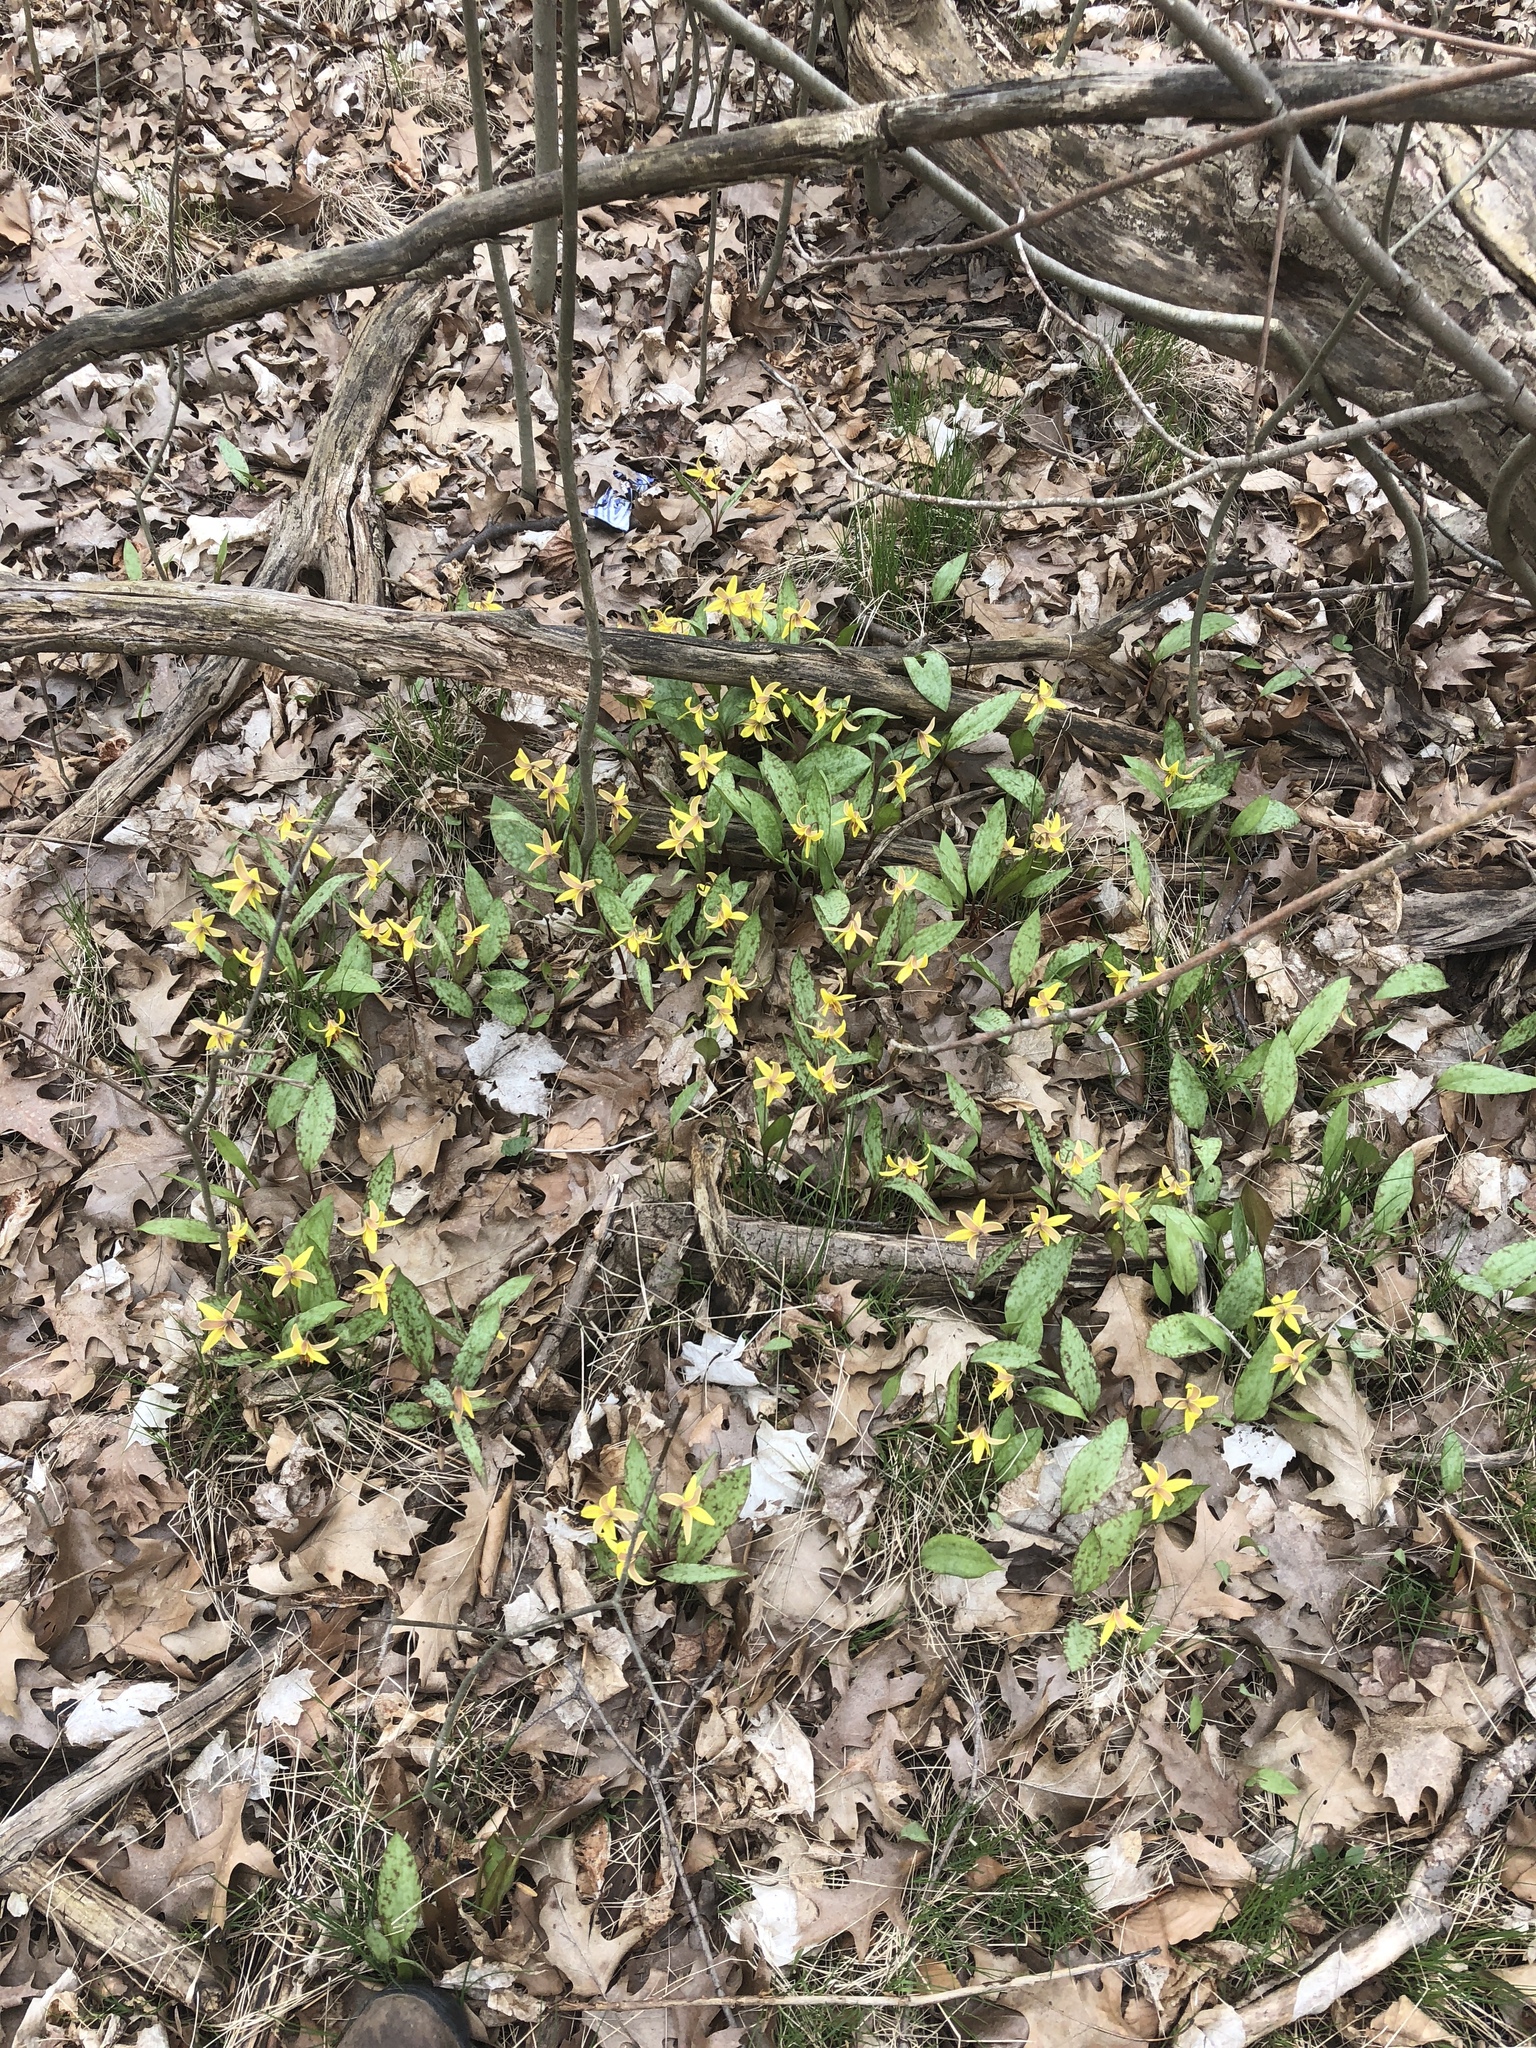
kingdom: Plantae
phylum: Tracheophyta
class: Liliopsida
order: Liliales
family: Liliaceae
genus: Erythronium
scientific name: Erythronium americanum
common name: Yellow adder's-tongue
